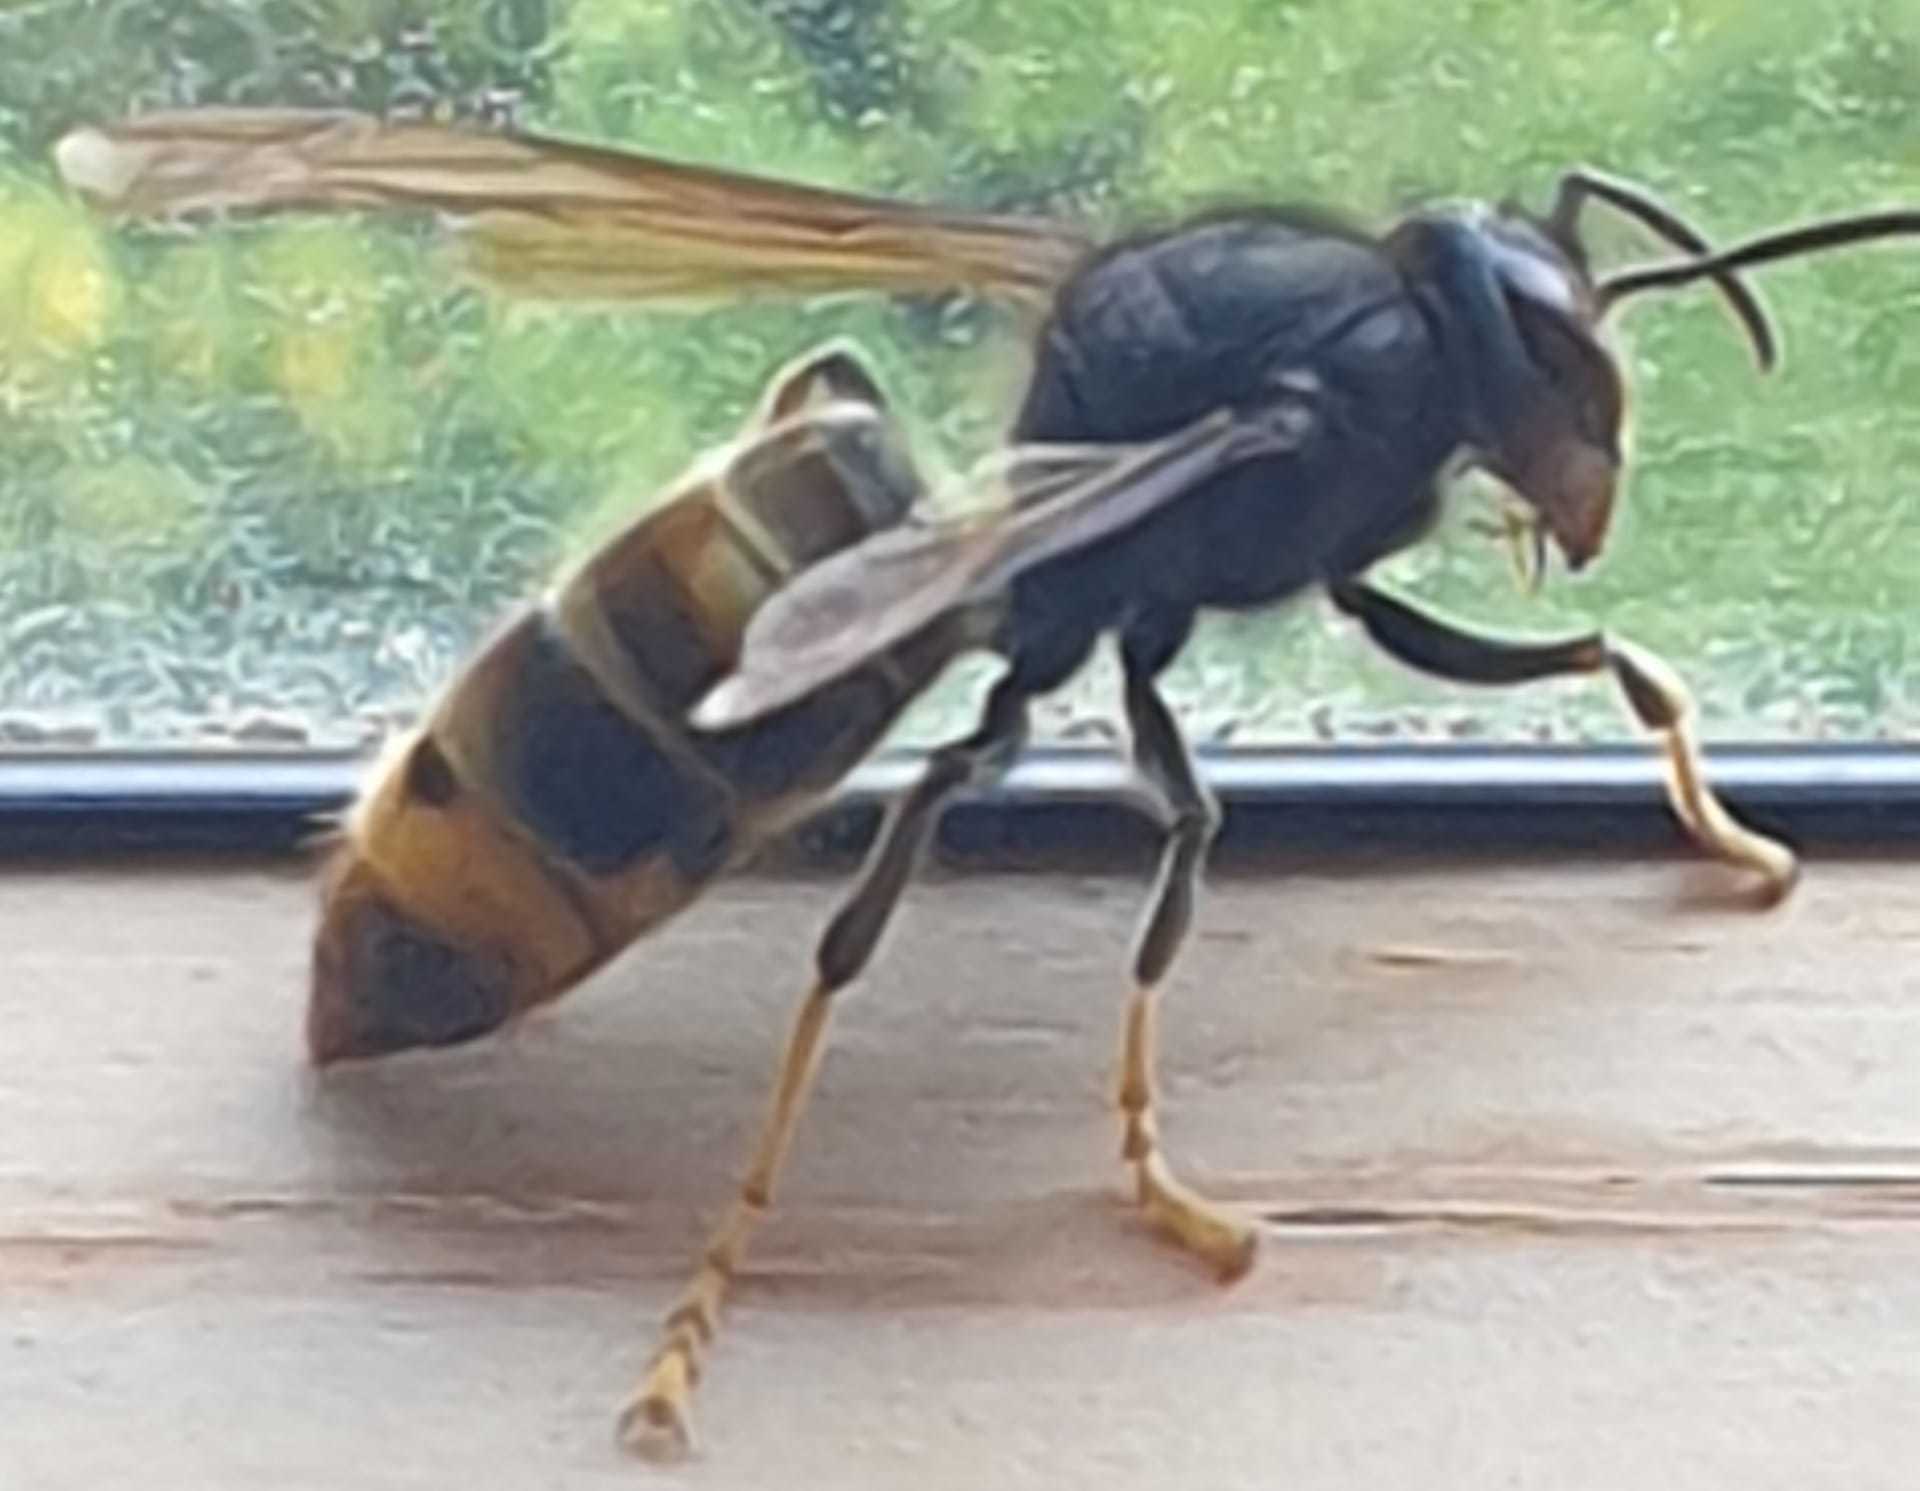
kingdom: Animalia
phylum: Arthropoda
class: Insecta
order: Hymenoptera
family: Vespidae
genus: Vespa
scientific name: Vespa velutina
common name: Asian hornet
